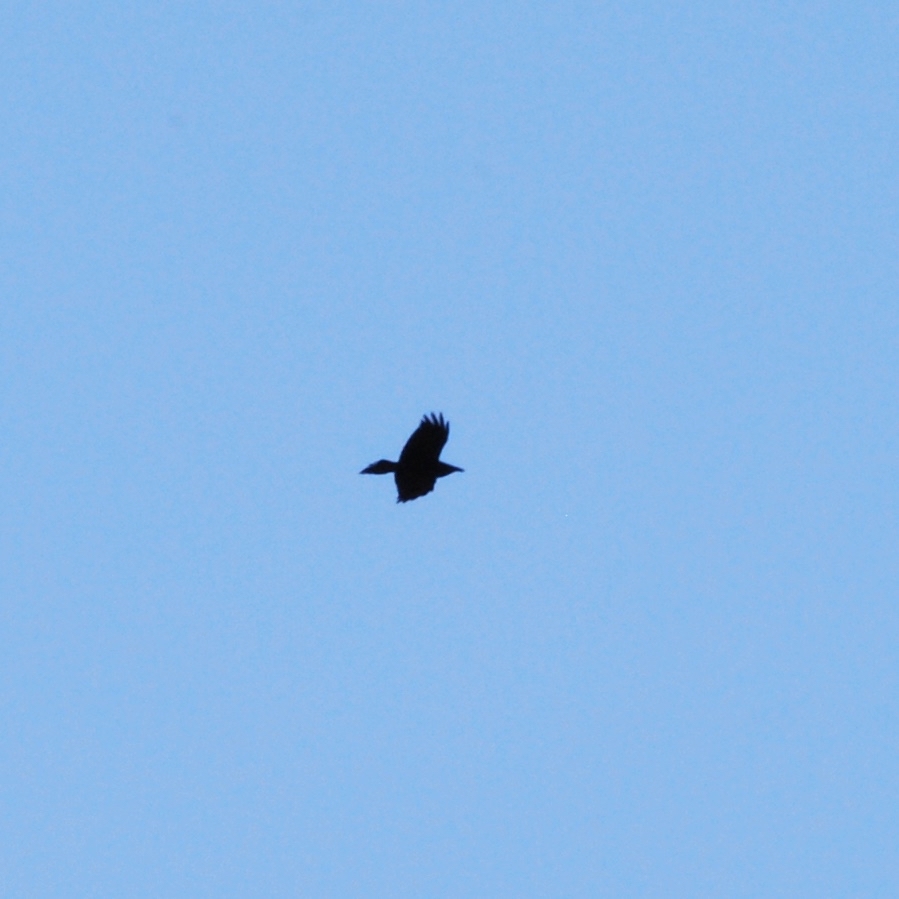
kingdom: Animalia
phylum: Chordata
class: Aves
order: Passeriformes
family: Corvidae
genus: Corvus
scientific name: Corvus corax
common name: Common raven
